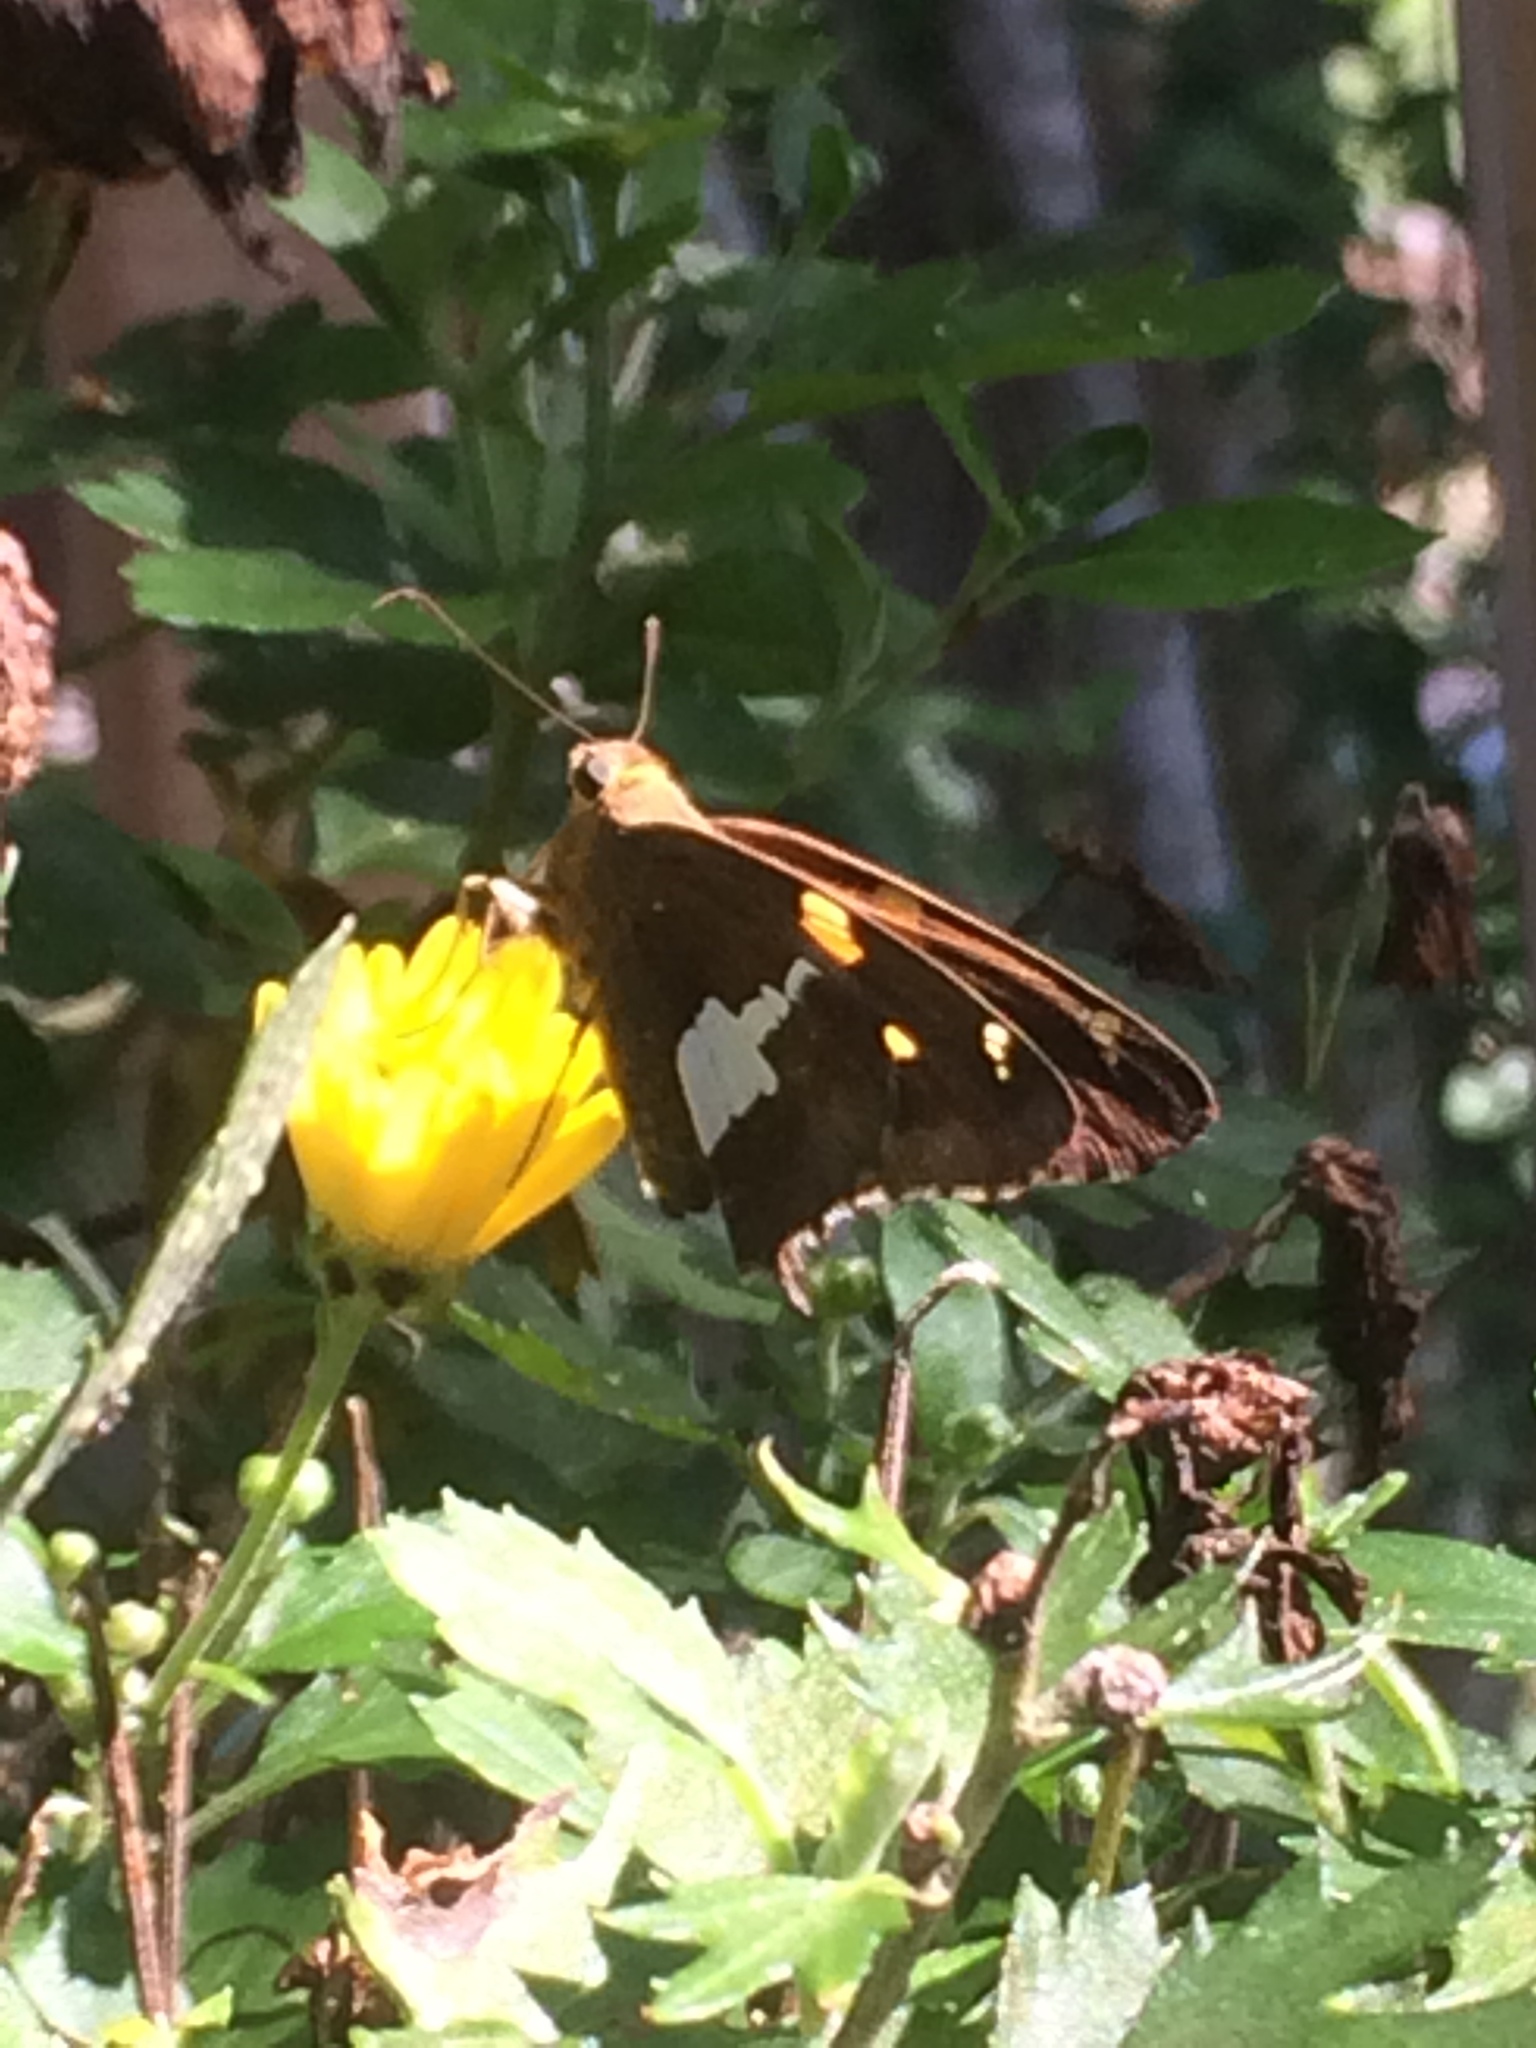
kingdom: Animalia
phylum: Arthropoda
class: Insecta
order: Lepidoptera
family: Hesperiidae
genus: Epargyreus
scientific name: Epargyreus clarus
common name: Silver-spotted skipper
